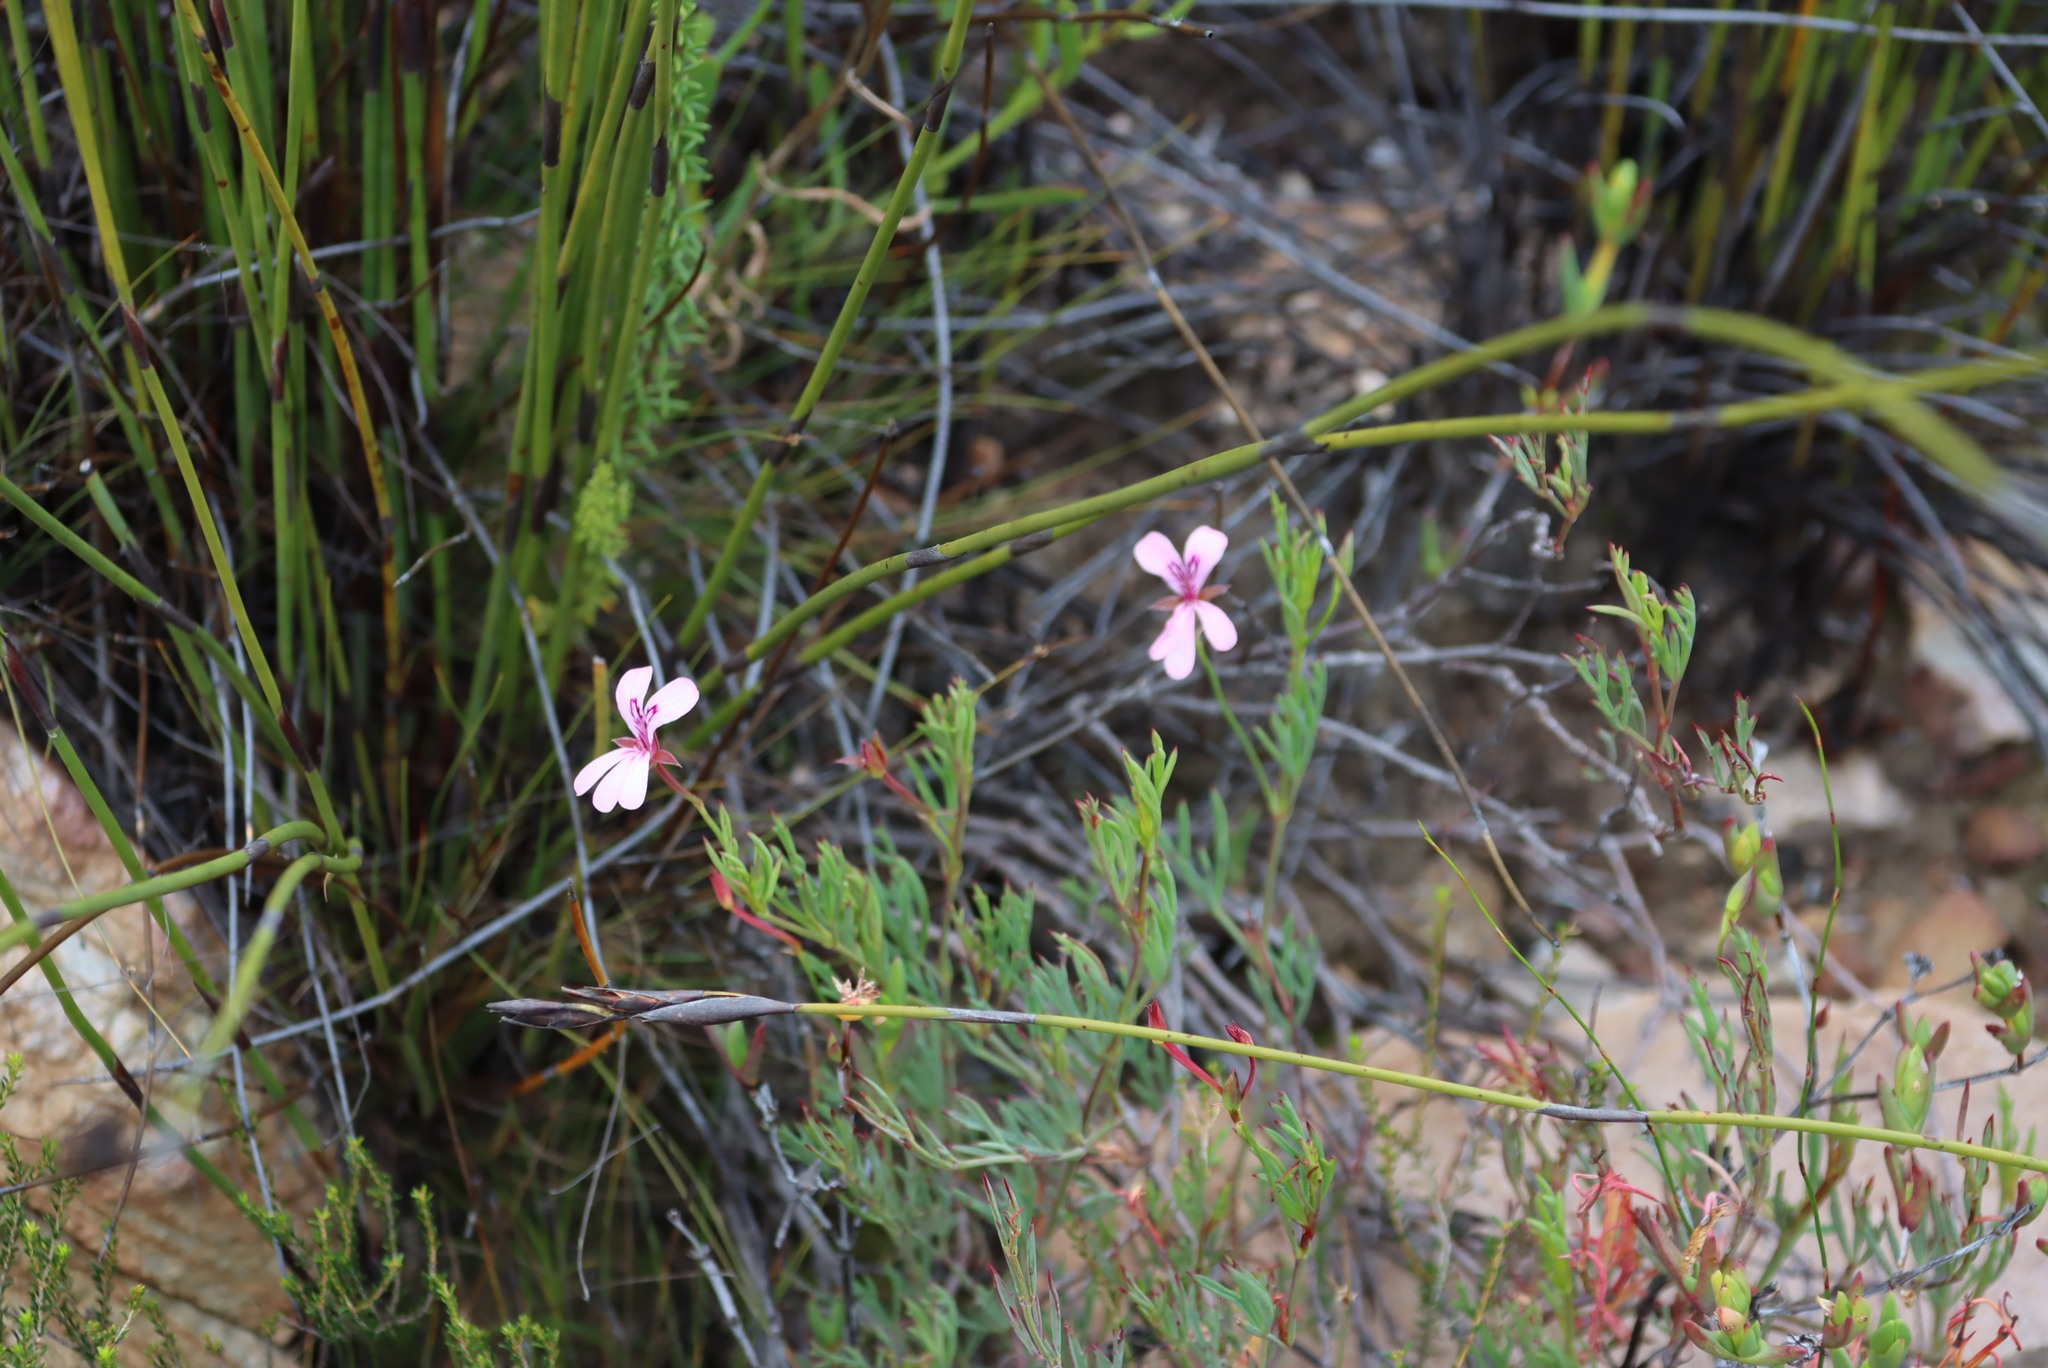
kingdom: Plantae
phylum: Tracheophyta
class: Magnoliopsida
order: Geraniales
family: Geraniaceae
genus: Pelargonium
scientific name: Pelargonium laevigatum
